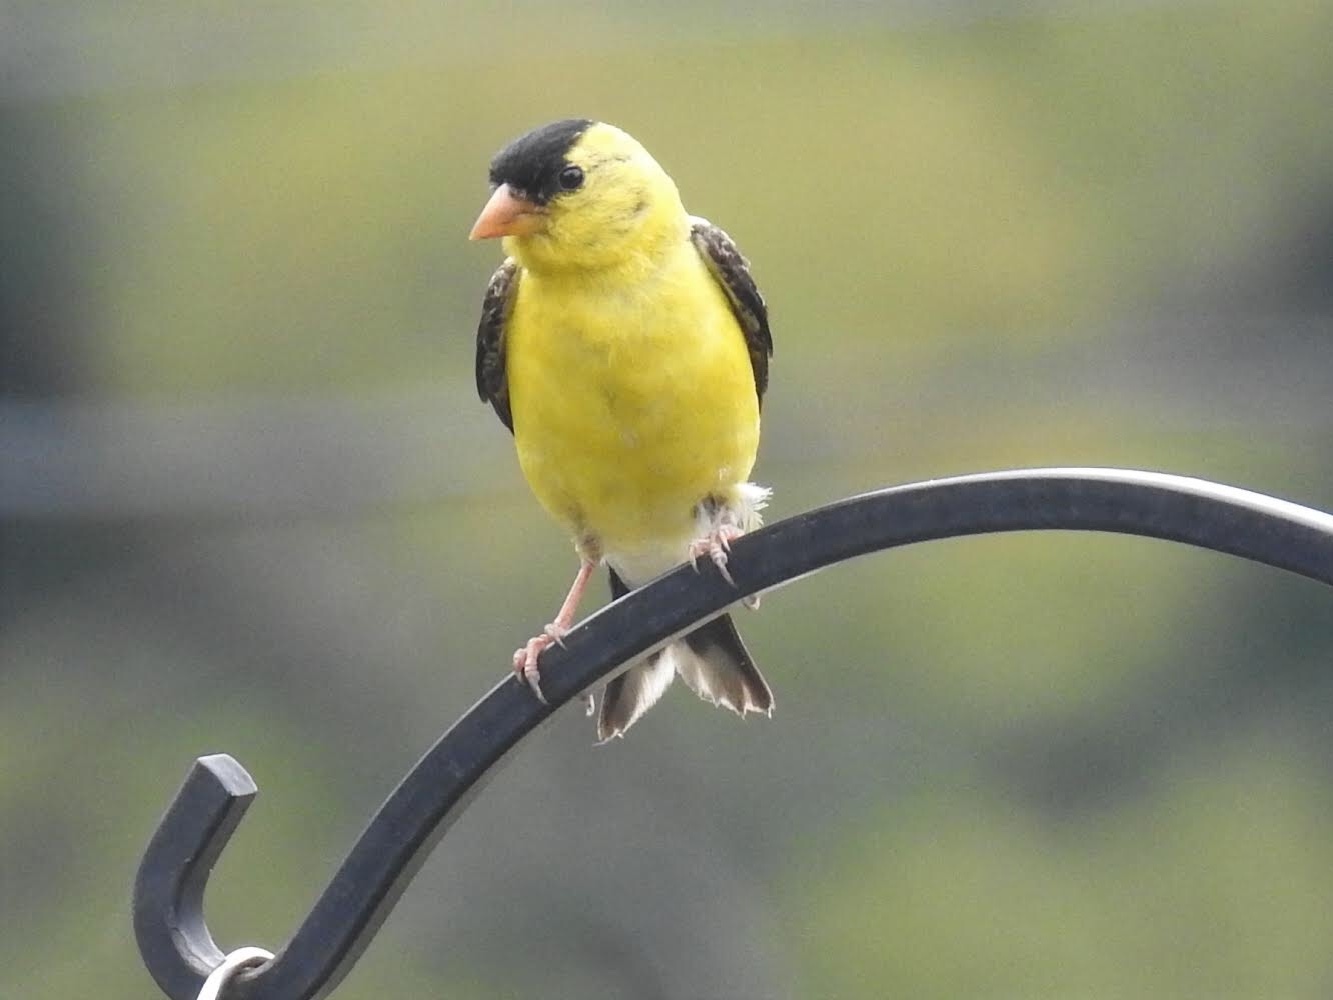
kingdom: Animalia
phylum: Chordata
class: Aves
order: Passeriformes
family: Fringillidae
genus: Spinus
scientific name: Spinus tristis
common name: American goldfinch
